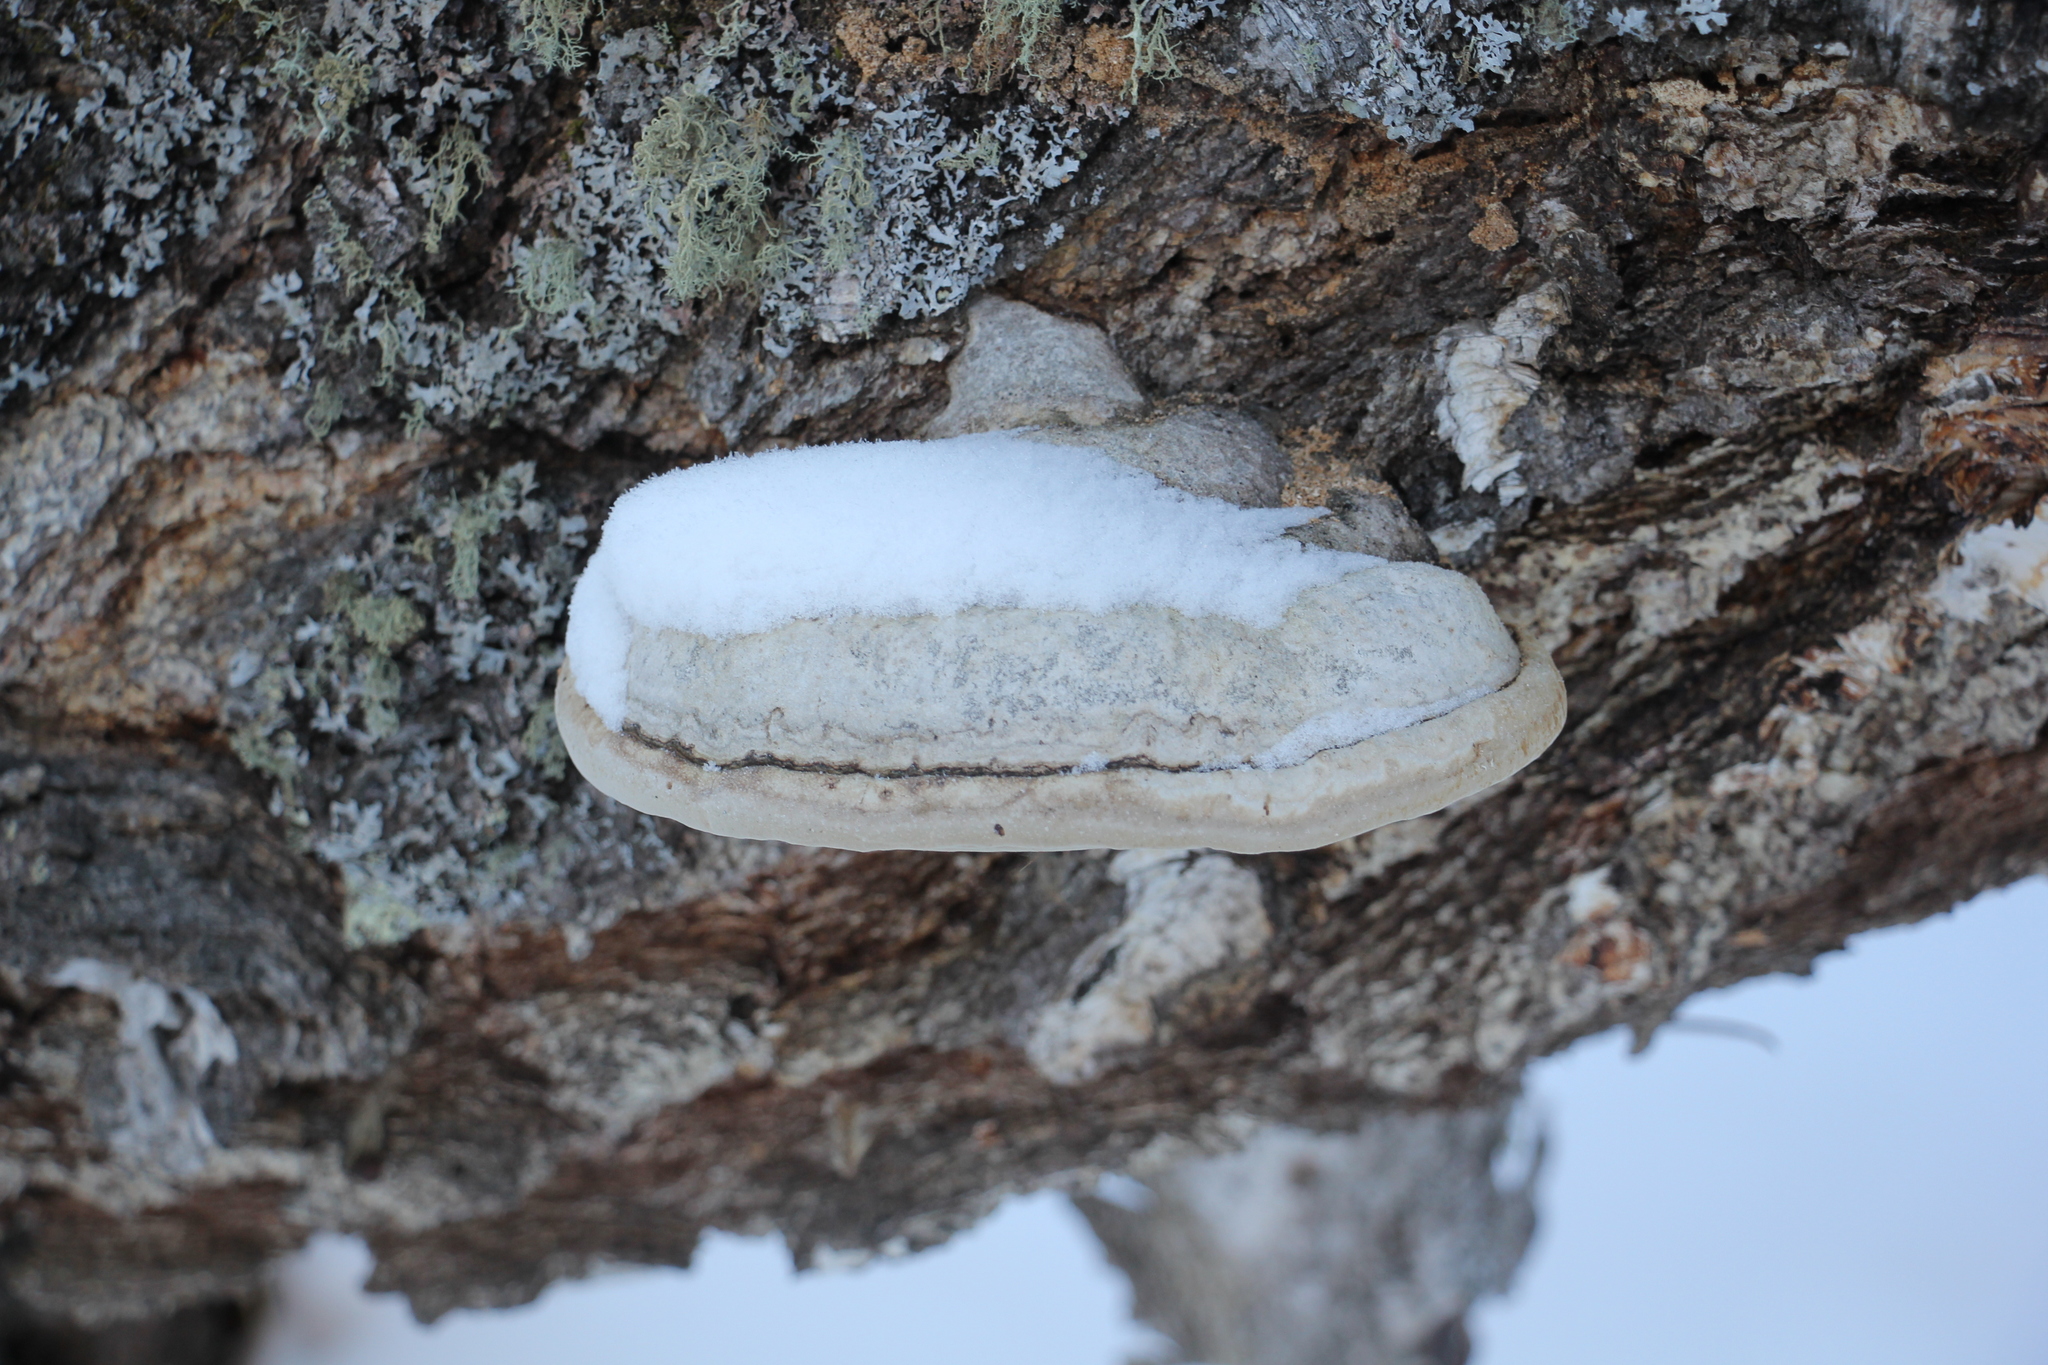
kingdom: Fungi
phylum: Basidiomycota
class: Agaricomycetes
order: Polyporales
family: Polyporaceae
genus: Fomes
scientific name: Fomes fomentarius
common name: Hoof fungus
